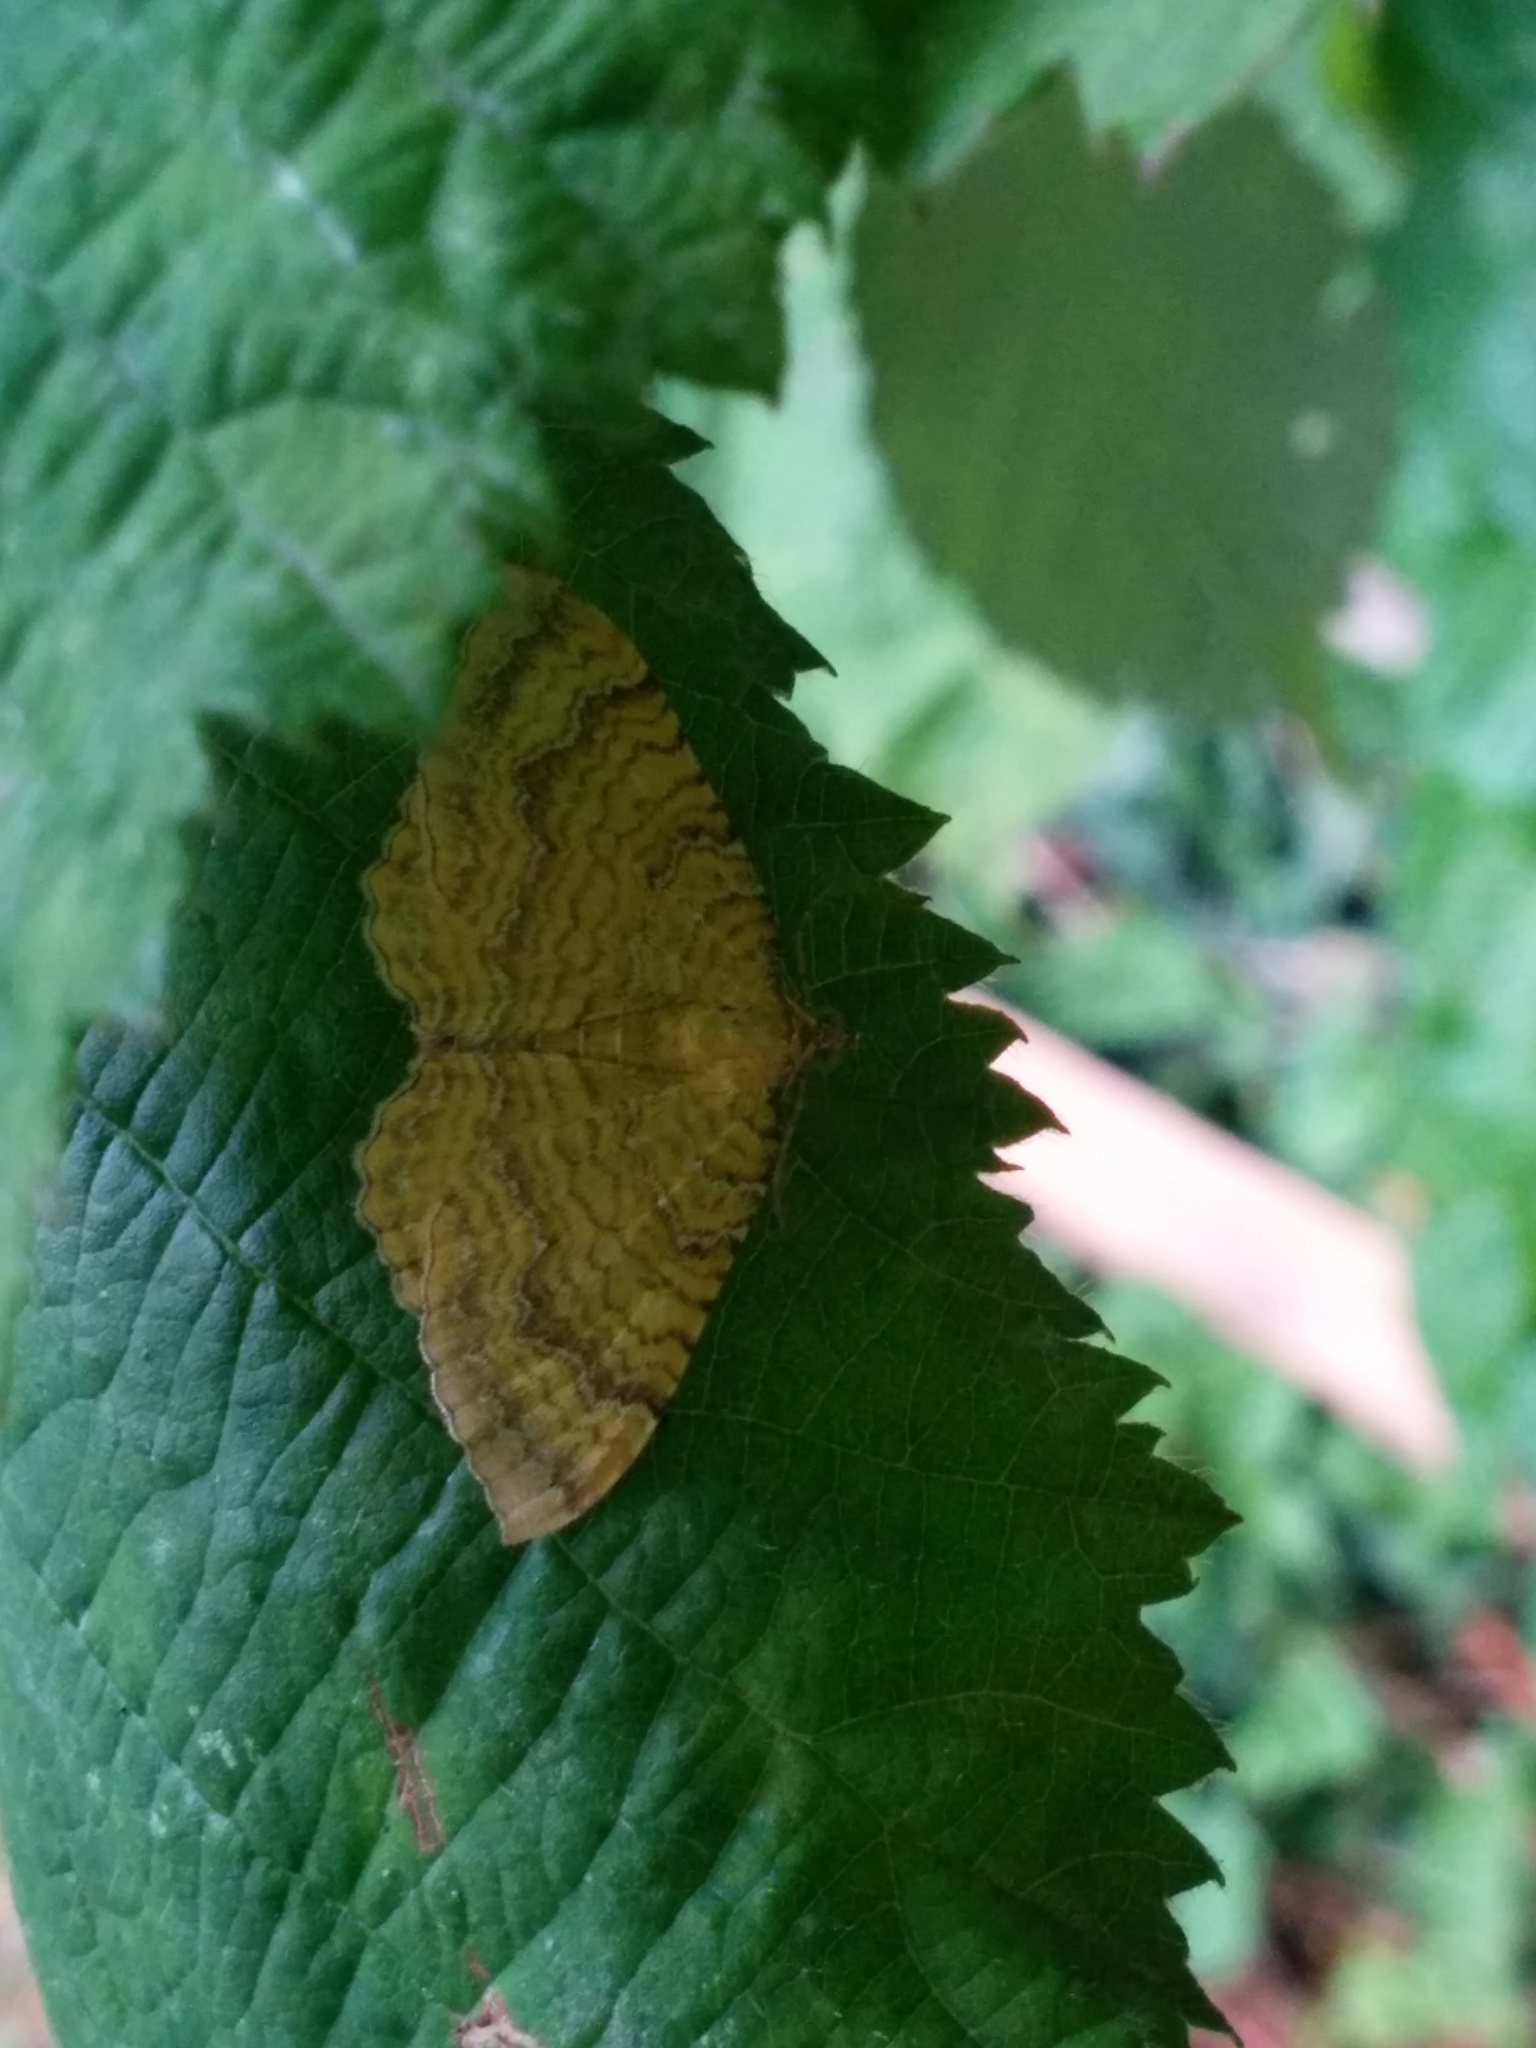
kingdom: Animalia
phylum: Arthropoda
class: Insecta
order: Lepidoptera
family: Geometridae
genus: Camptogramma
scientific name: Camptogramma bilineata
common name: Yellow shell
